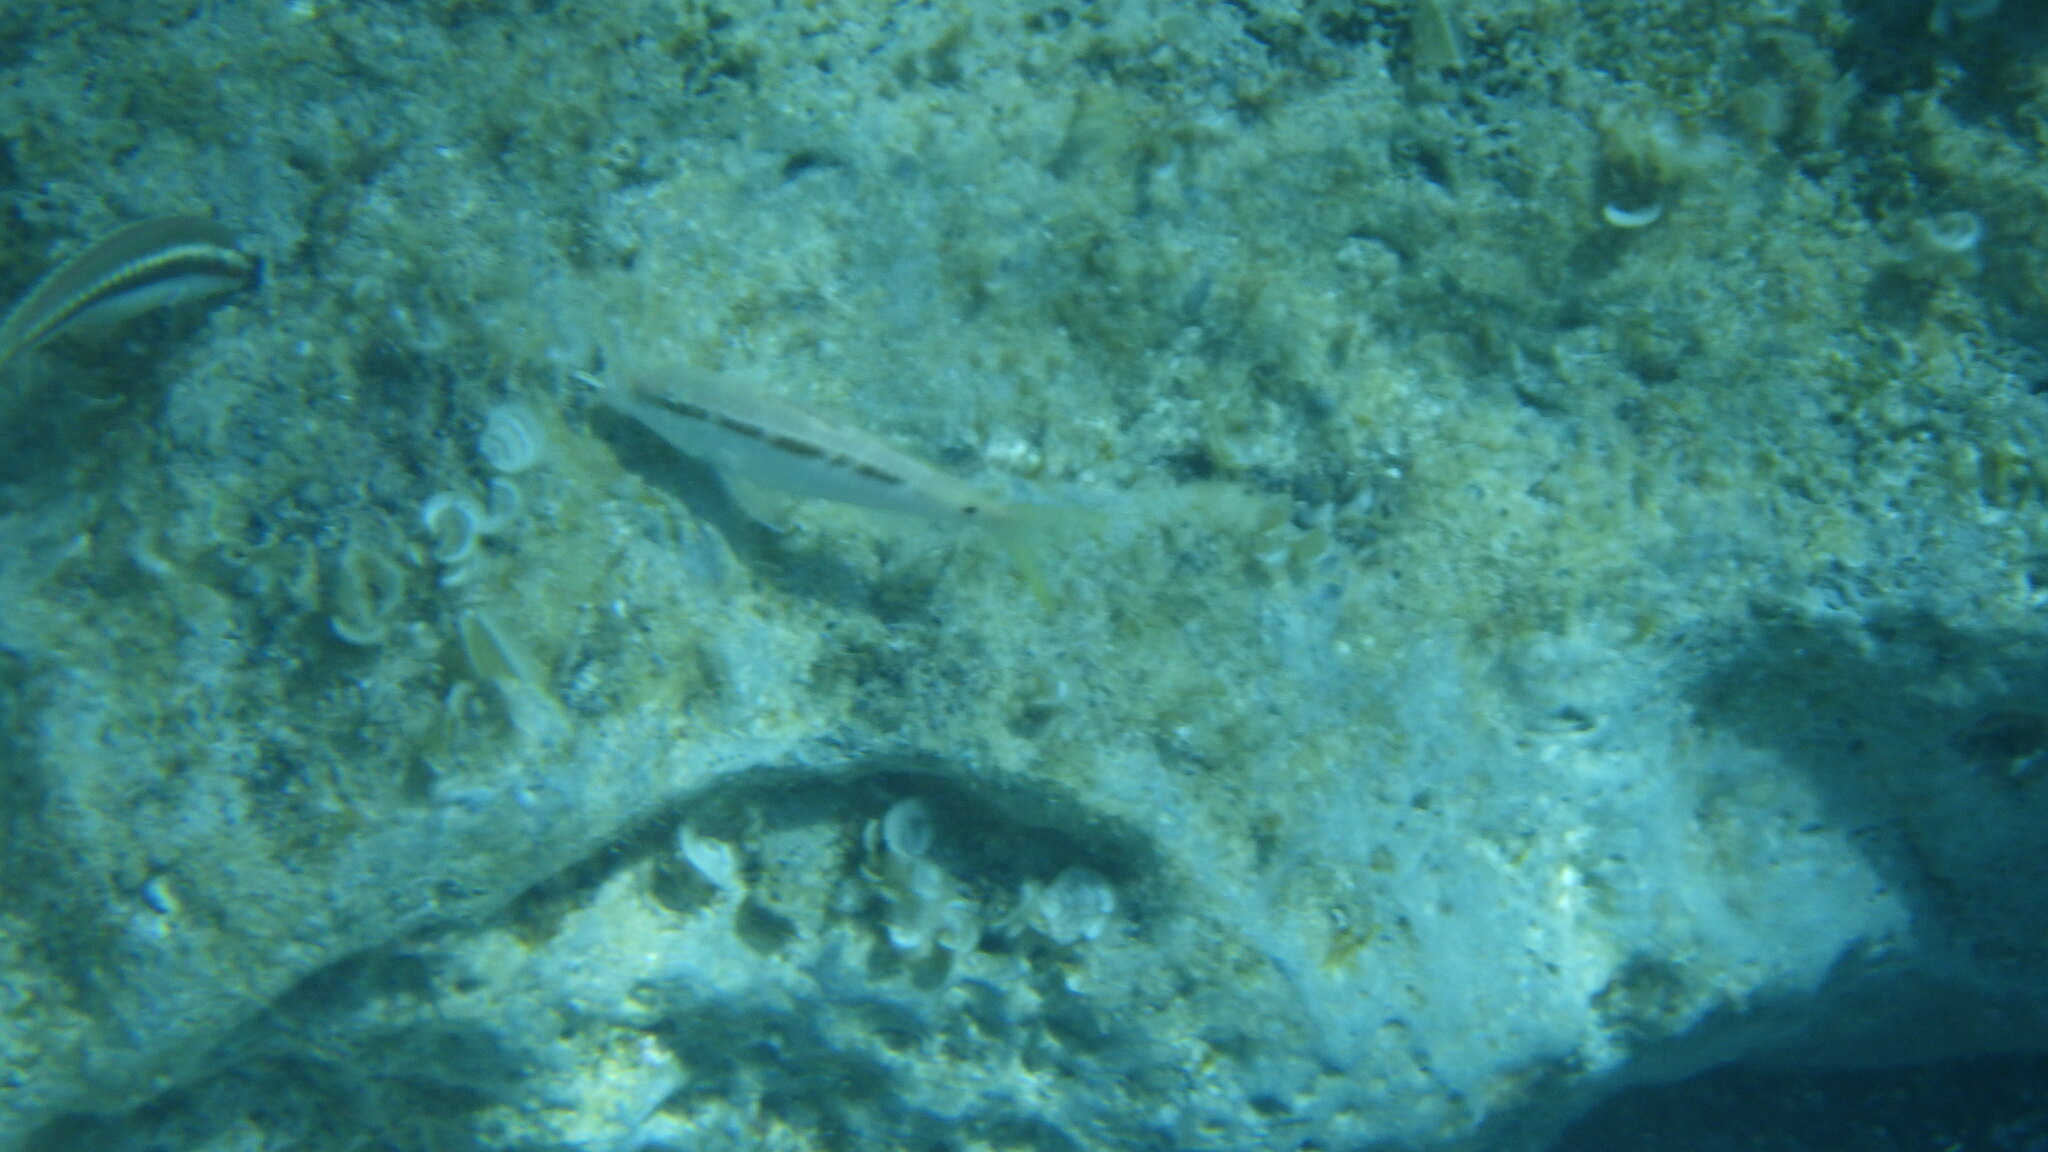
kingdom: Animalia
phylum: Chordata
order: Perciformes
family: Mullidae
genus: Parupeneus
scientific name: Parupeneus forsskali
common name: Red sea goatfish
